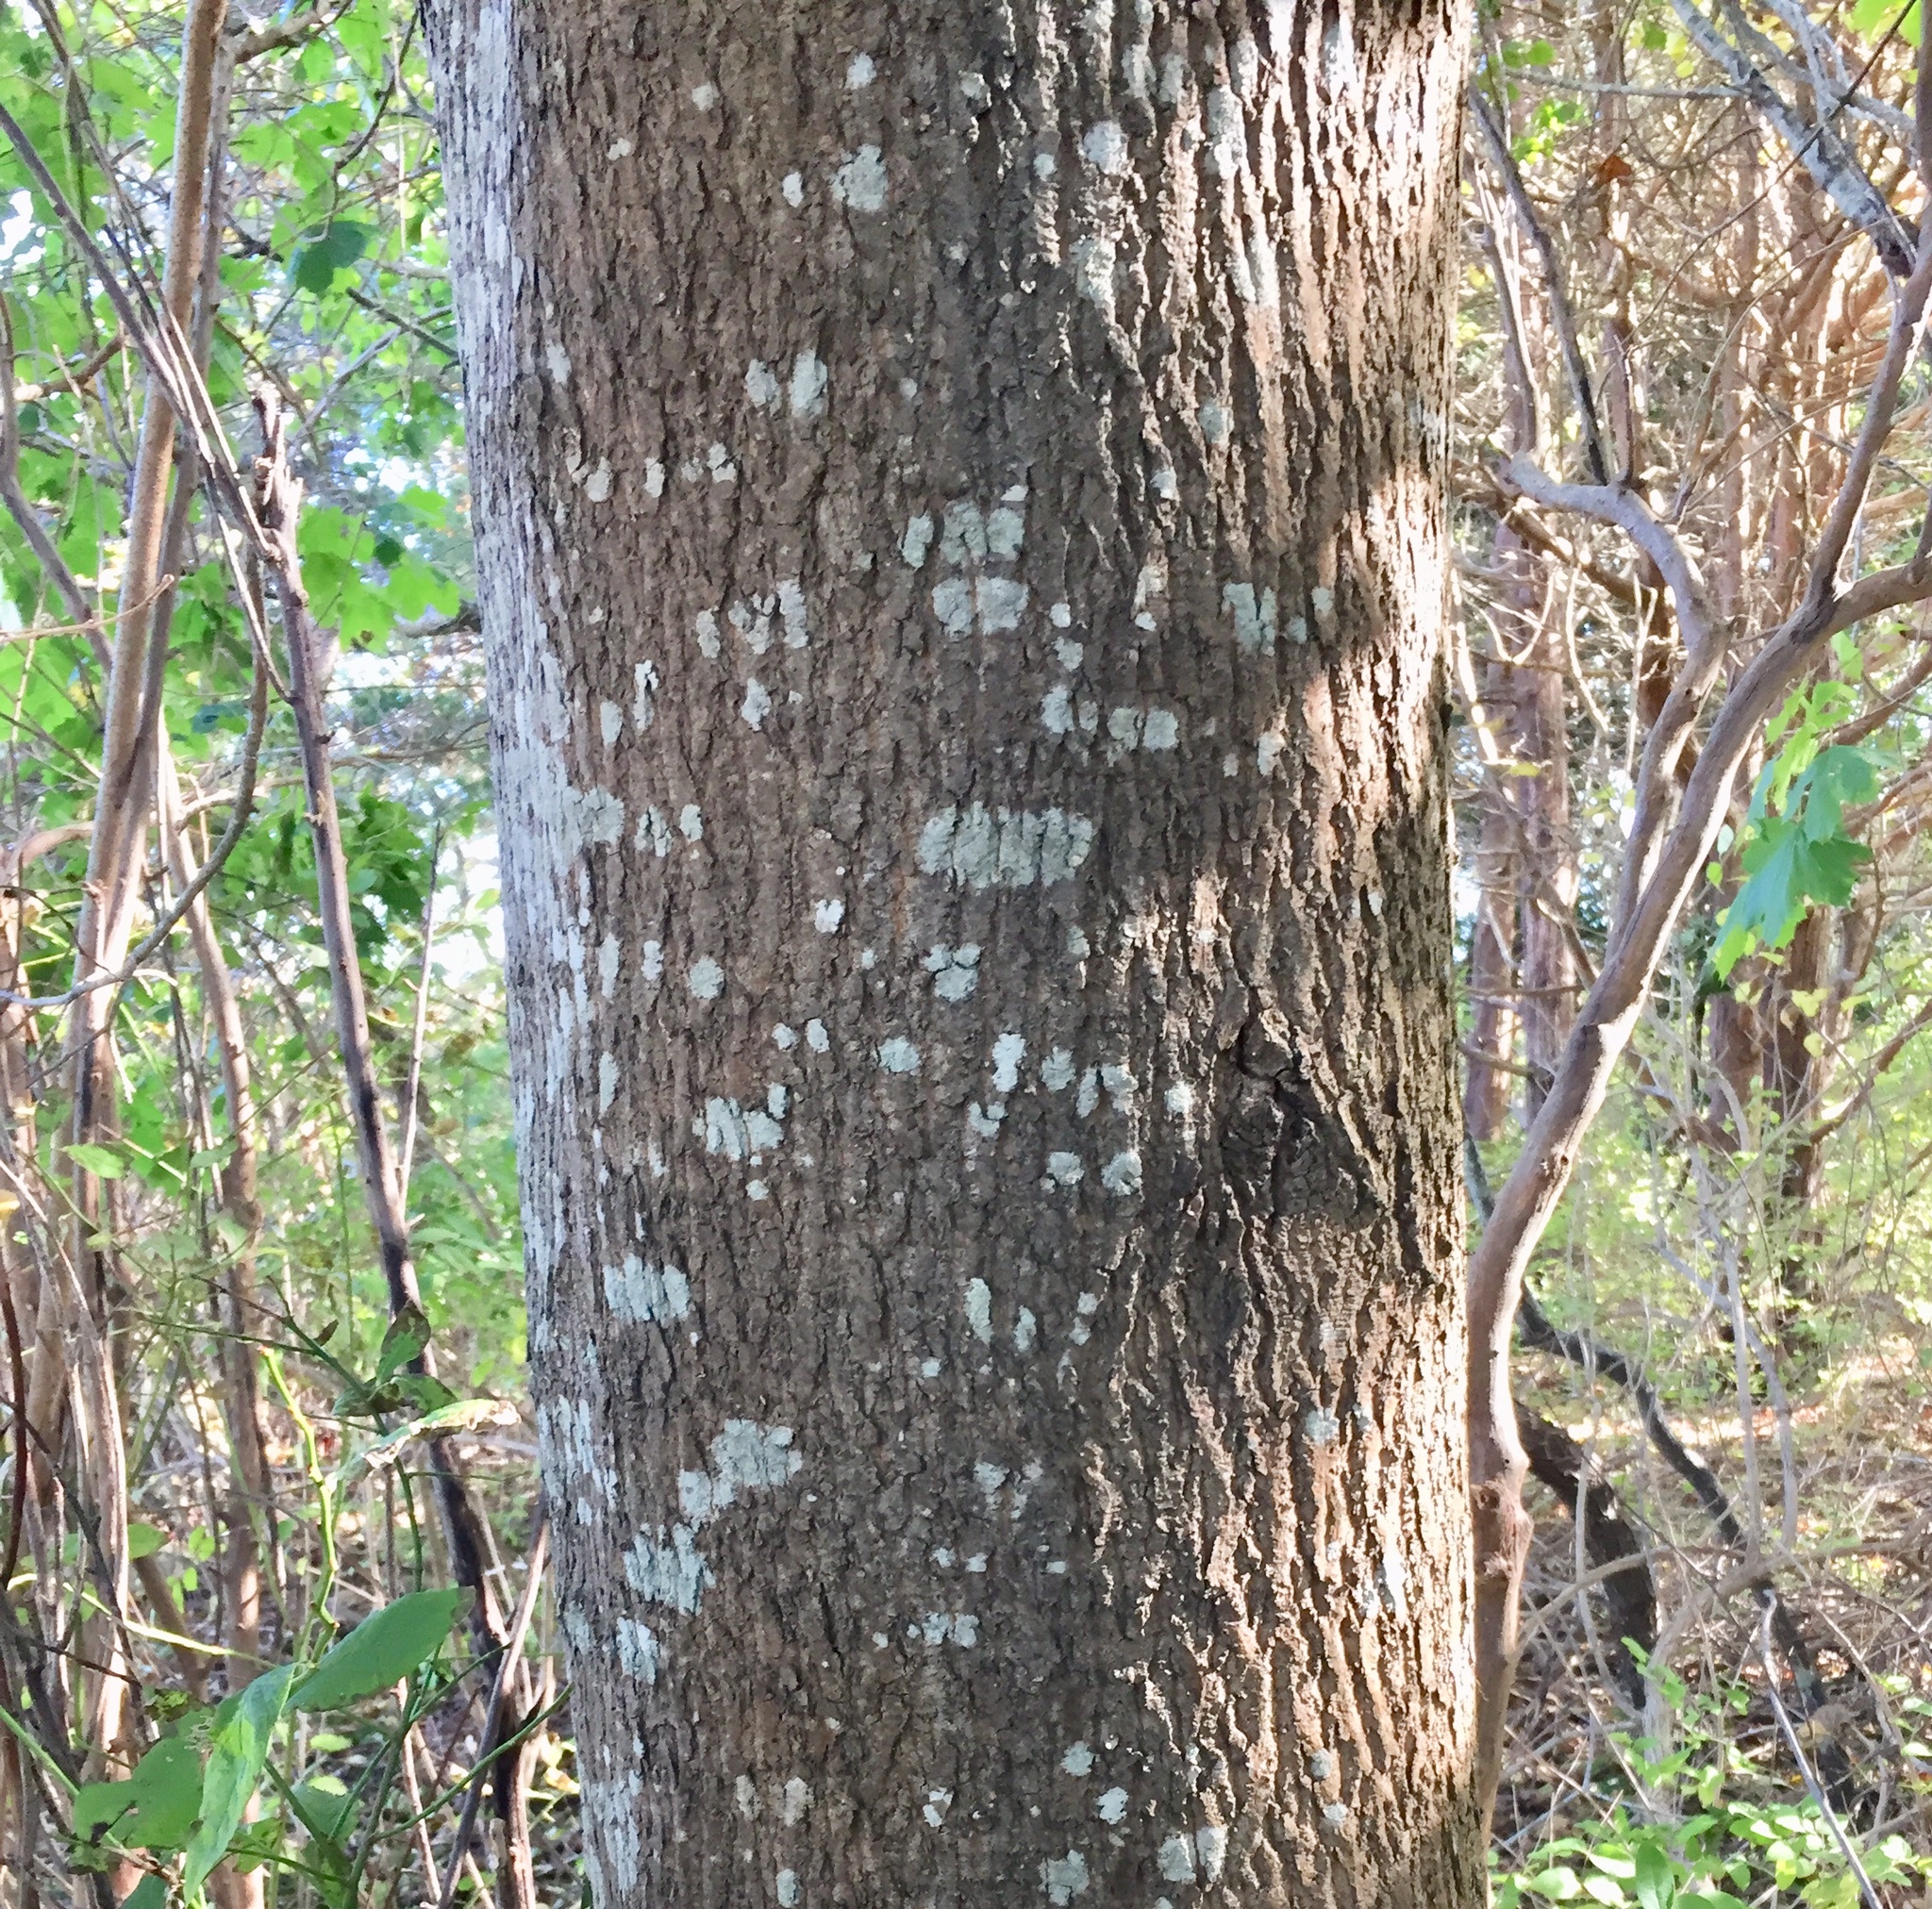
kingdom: Plantae
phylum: Tracheophyta
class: Magnoliopsida
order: Sapindales
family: Sapindaceae
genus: Acer
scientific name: Acer platanoides
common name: Norway maple
